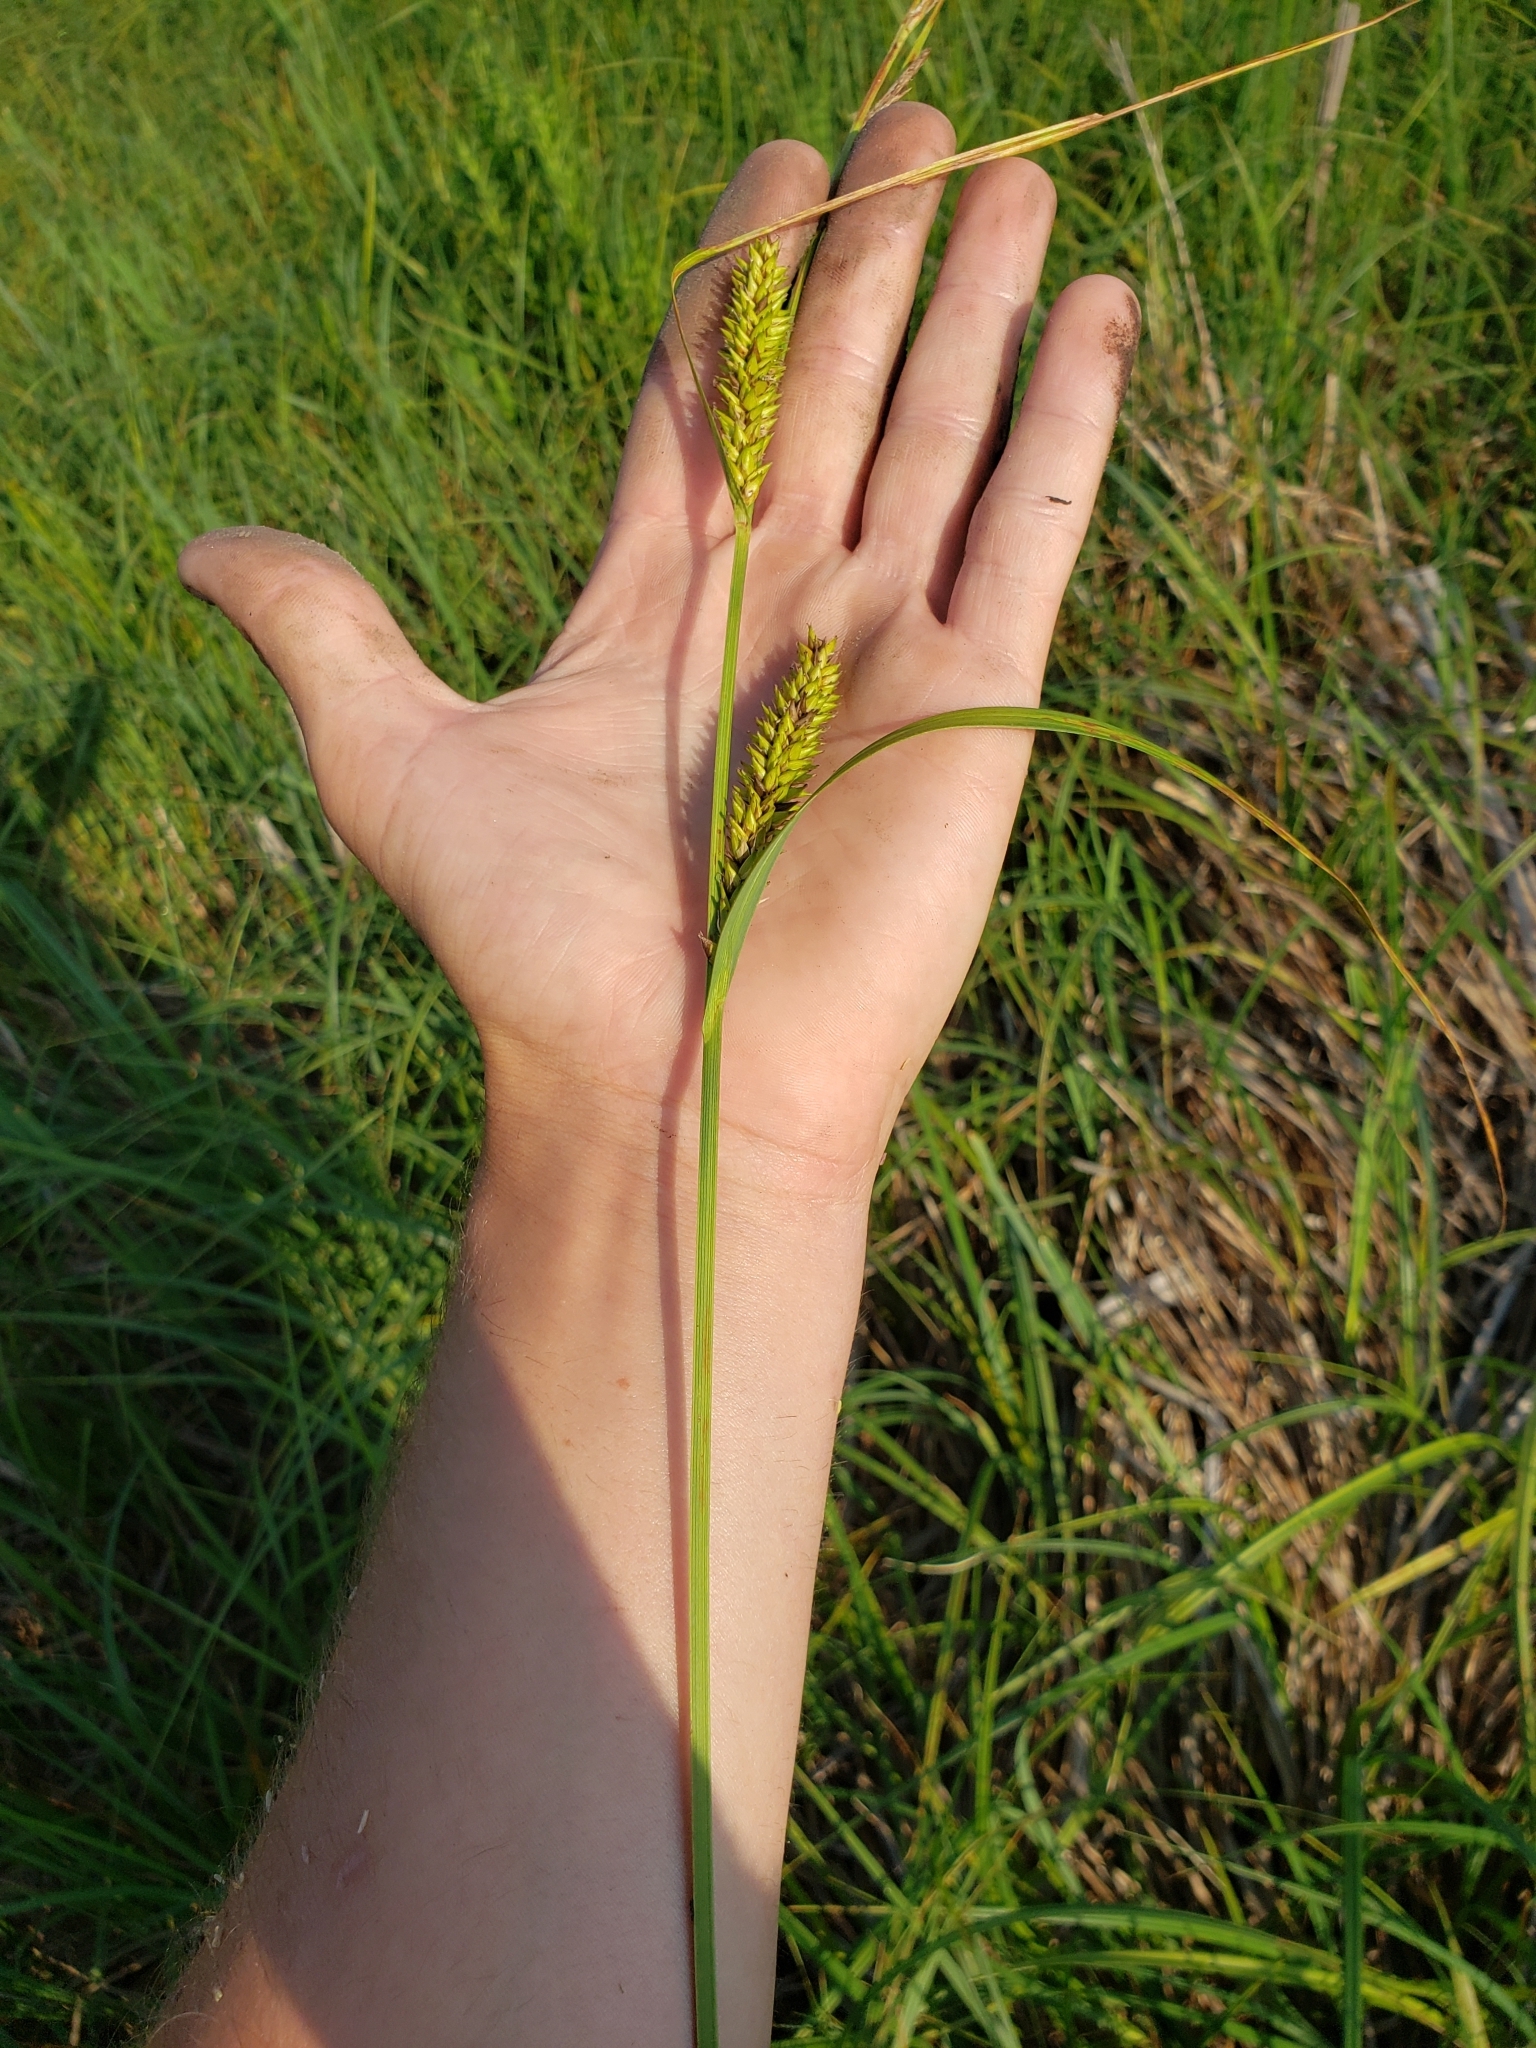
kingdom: Plantae
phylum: Tracheophyta
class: Liliopsida
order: Poales
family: Cyperaceae
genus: Carex
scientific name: Carex lacustris
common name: Common lake sedge
